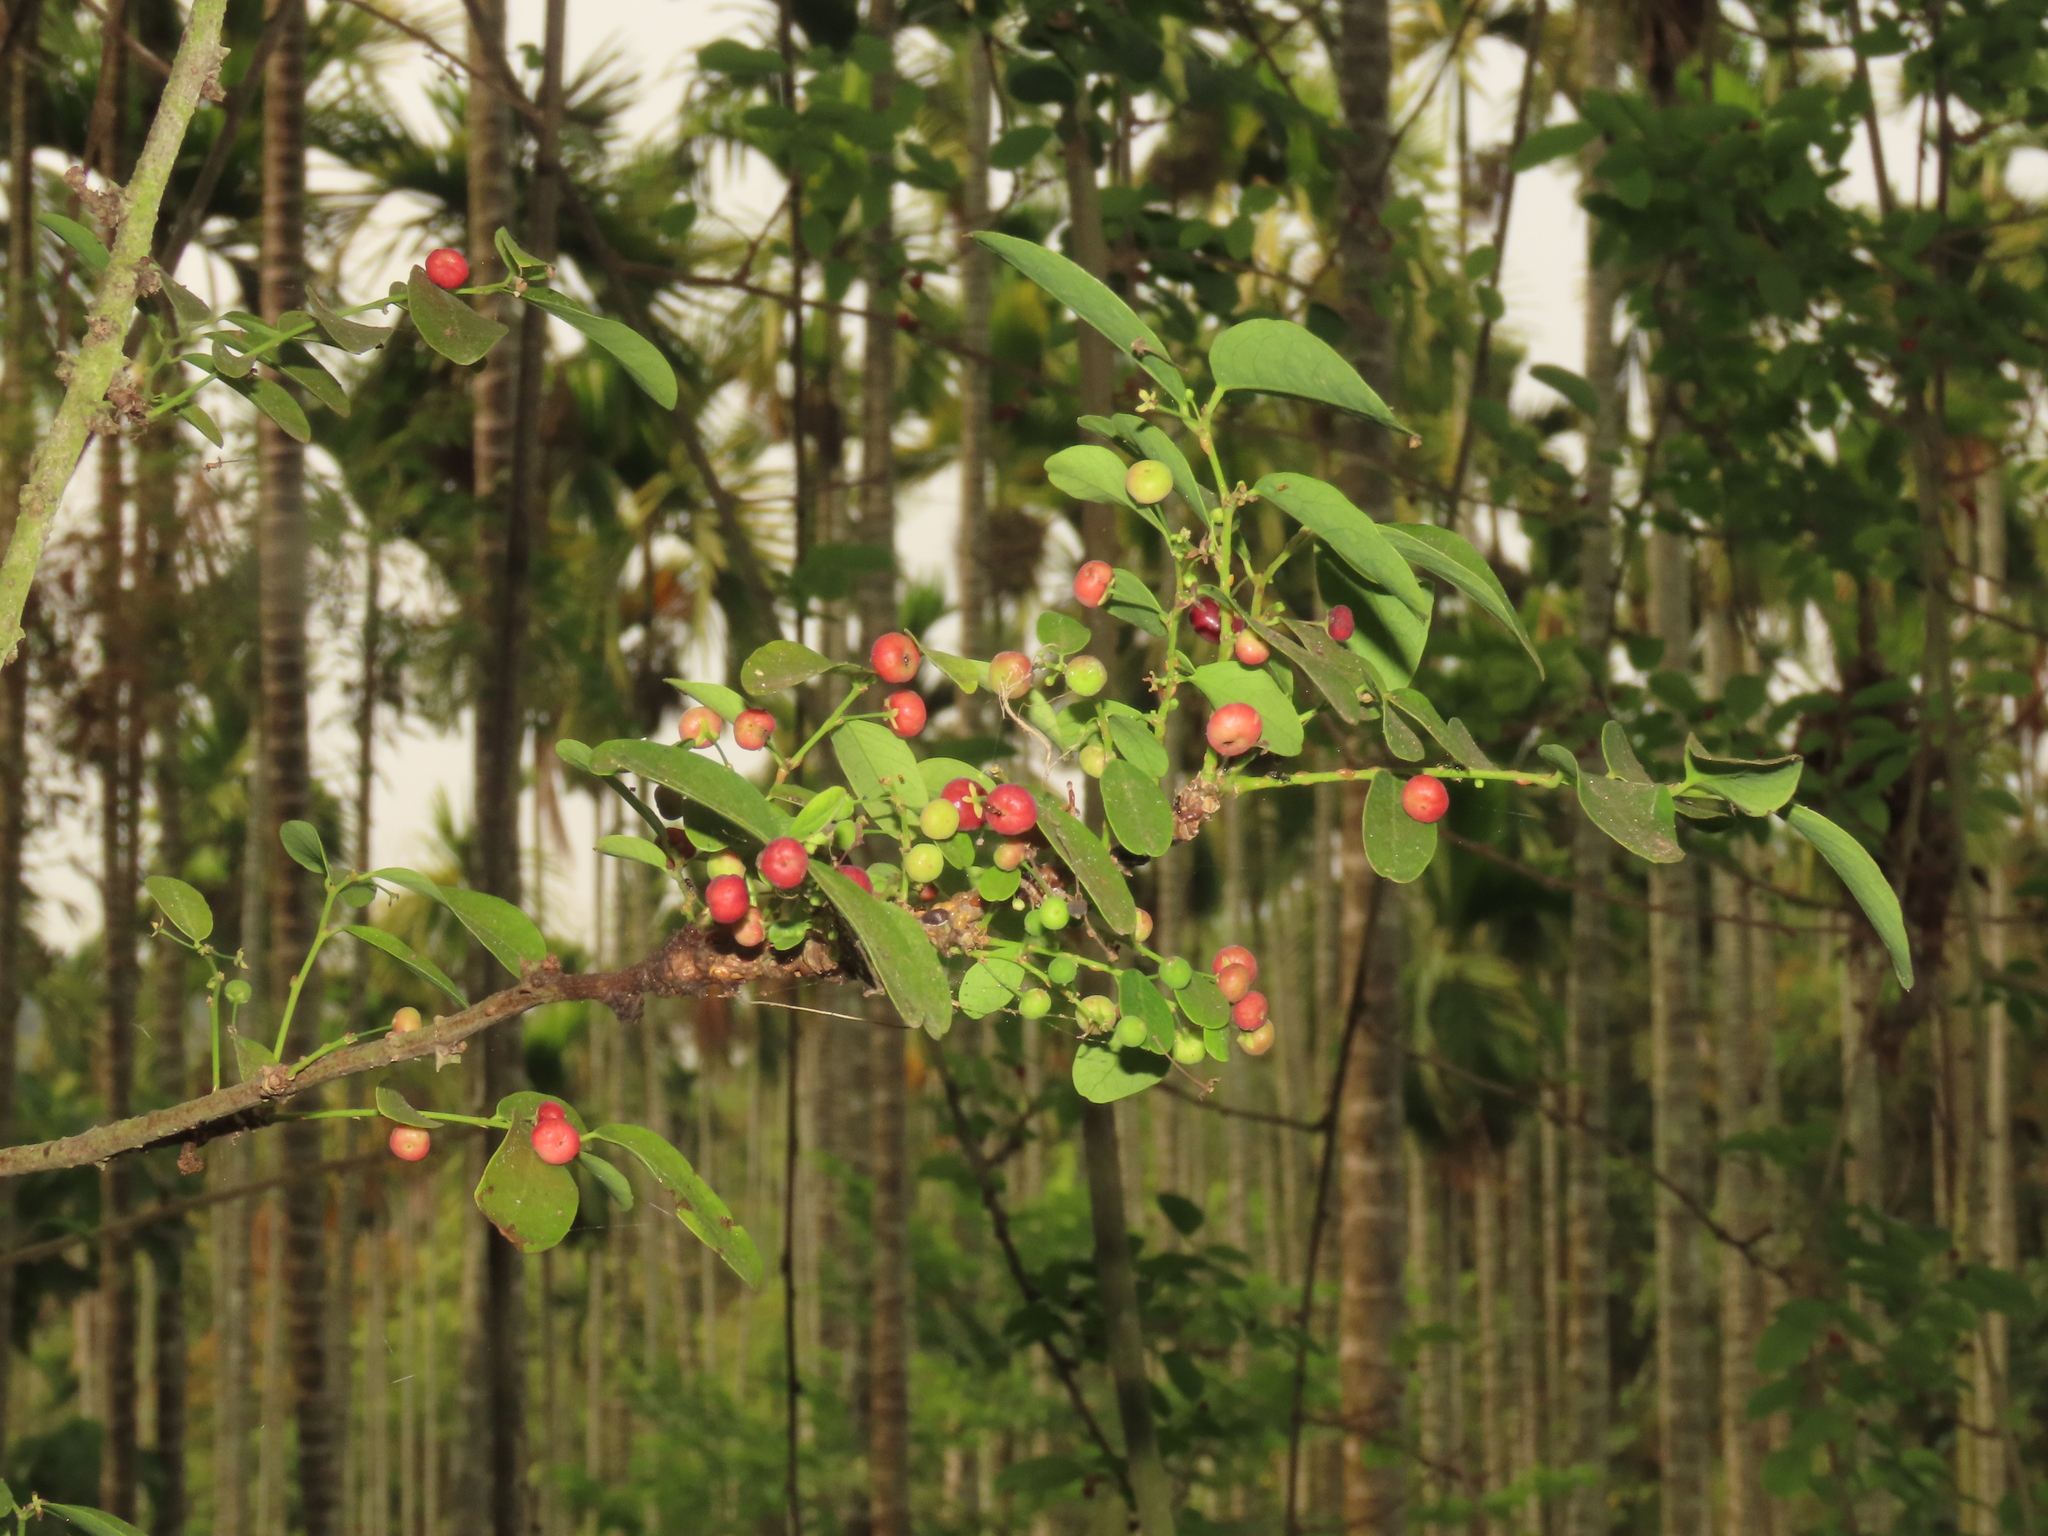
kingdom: Plantae
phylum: Tracheophyta
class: Magnoliopsida
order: Malpighiales
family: Phyllanthaceae
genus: Phyllanthus
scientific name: Phyllanthus reticulatus
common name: Potato bush
